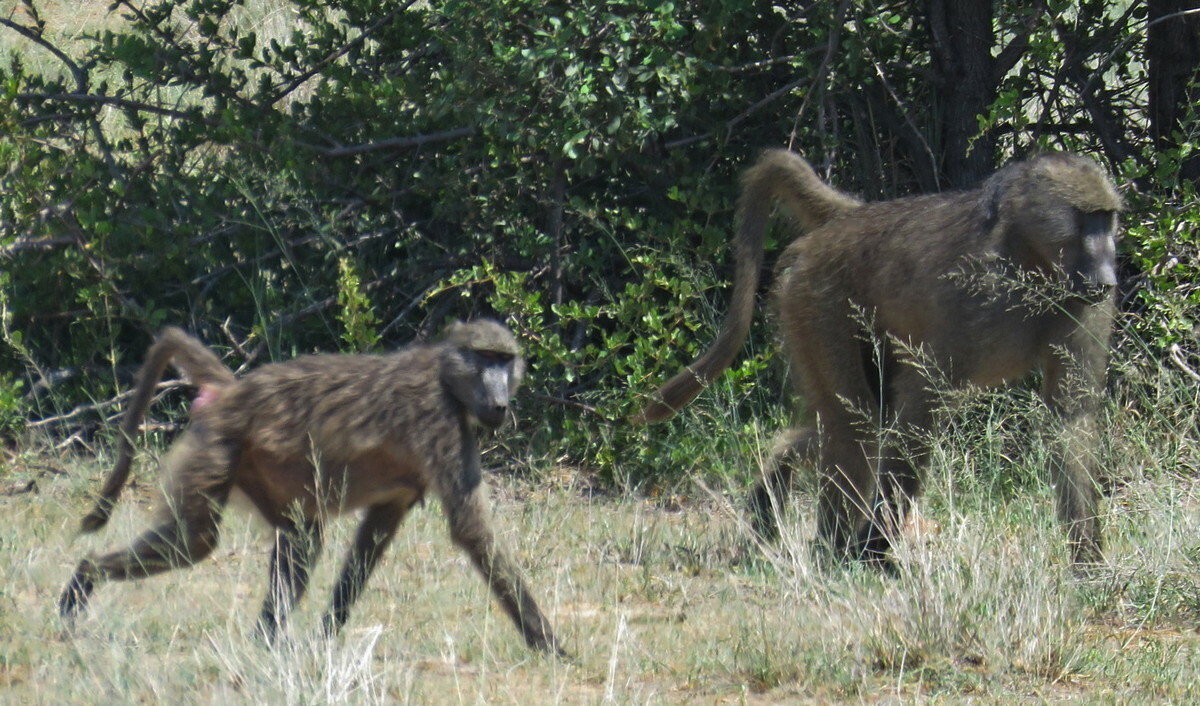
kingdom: Animalia
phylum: Chordata
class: Mammalia
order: Primates
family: Cercopithecidae
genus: Papio
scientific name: Papio ursinus
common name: Chacma baboon
